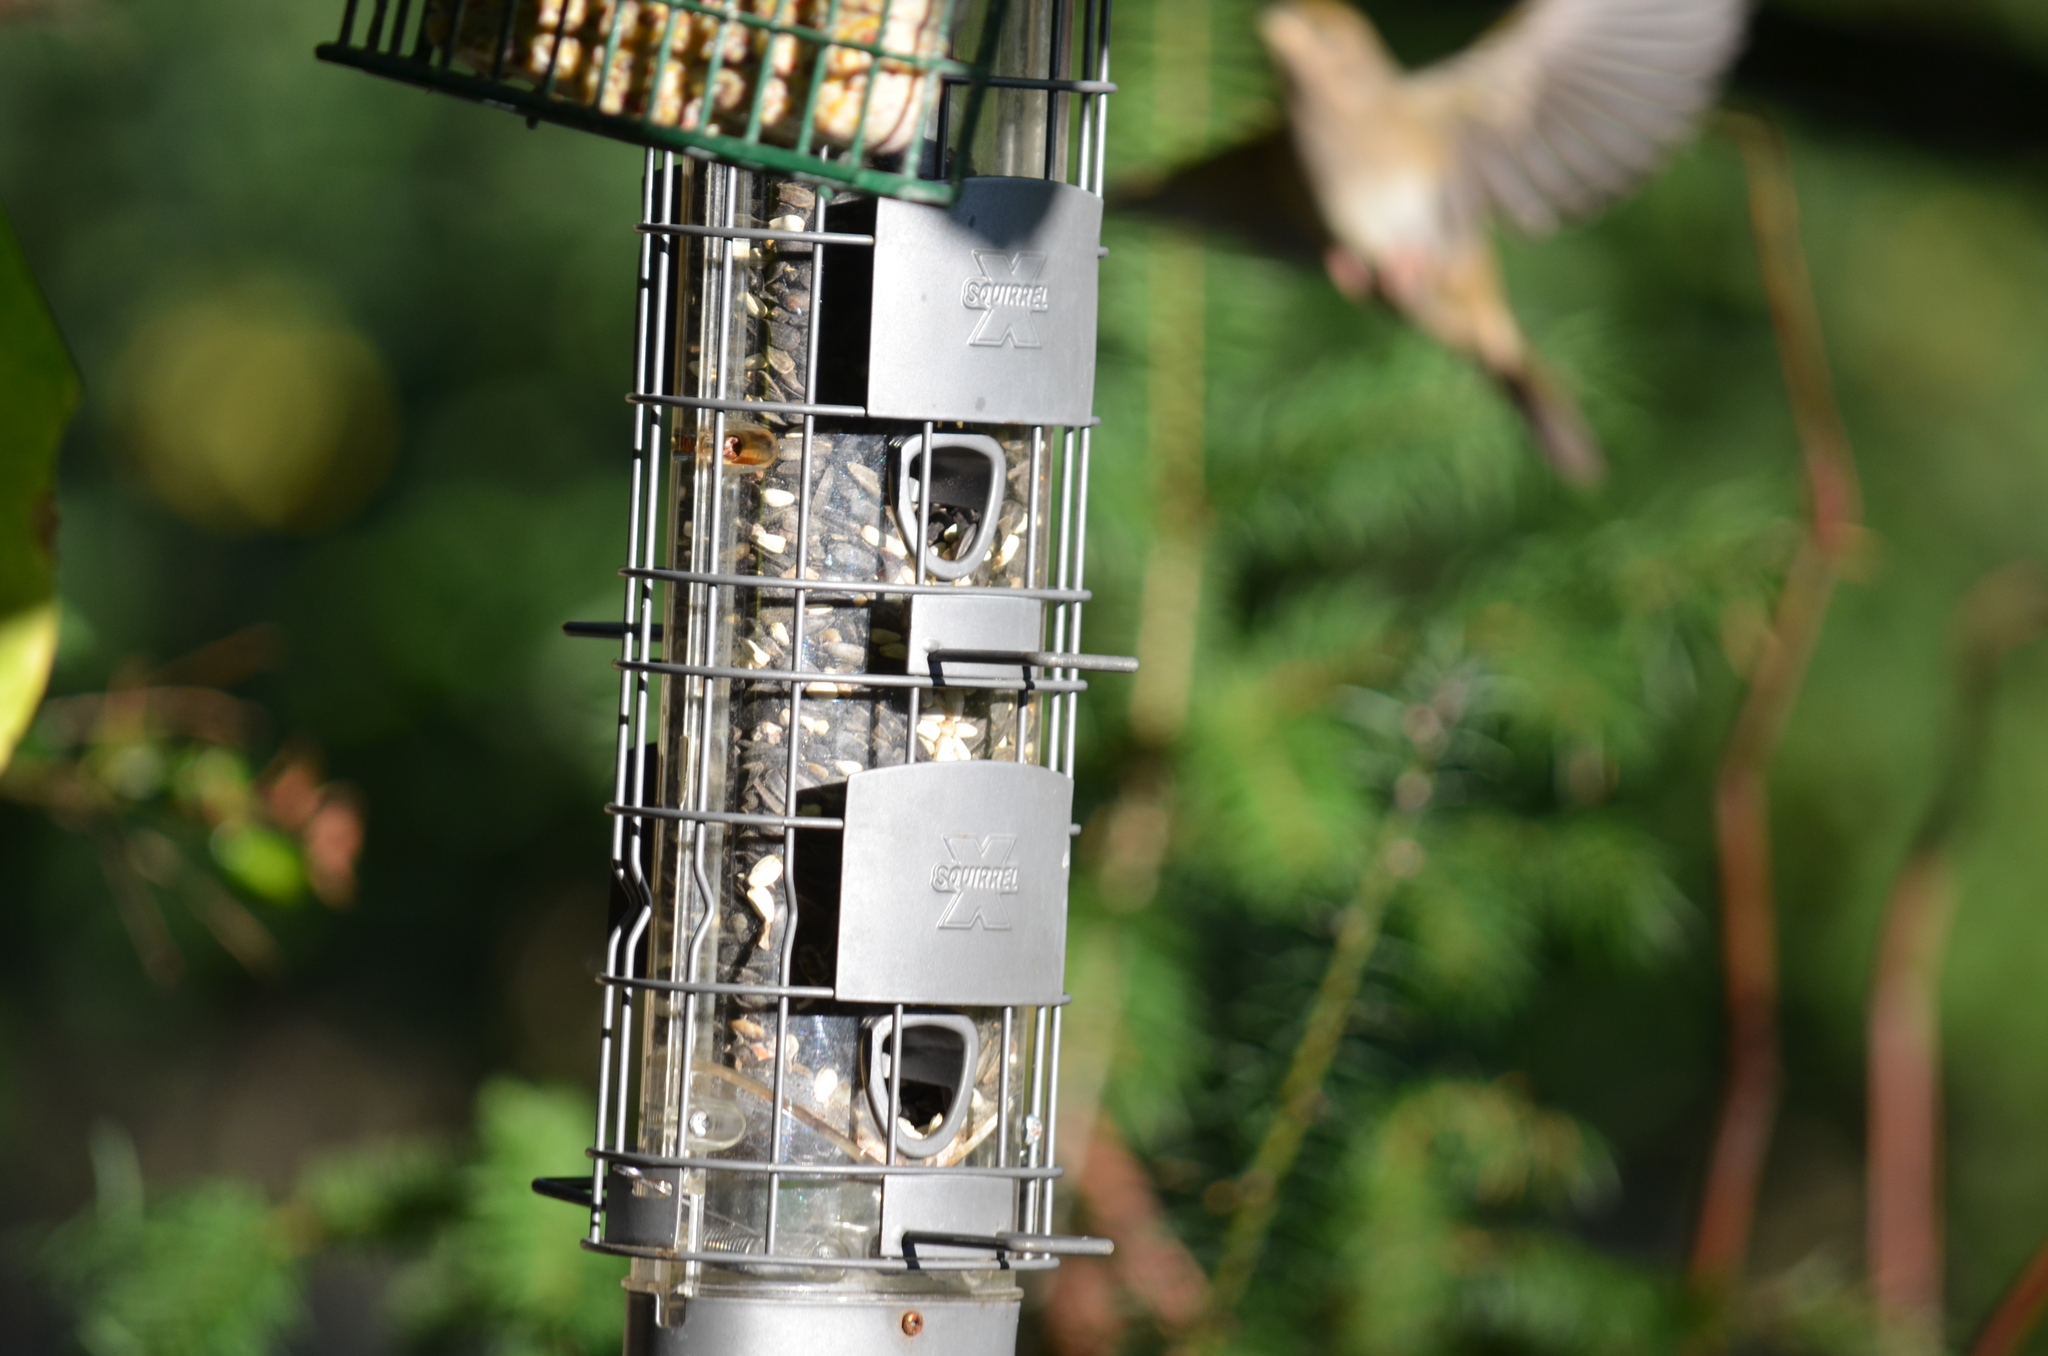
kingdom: Animalia
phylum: Chordata
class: Aves
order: Passeriformes
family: Passerellidae
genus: Zonotrichia
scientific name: Zonotrichia atricapilla
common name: Golden-crowned sparrow
